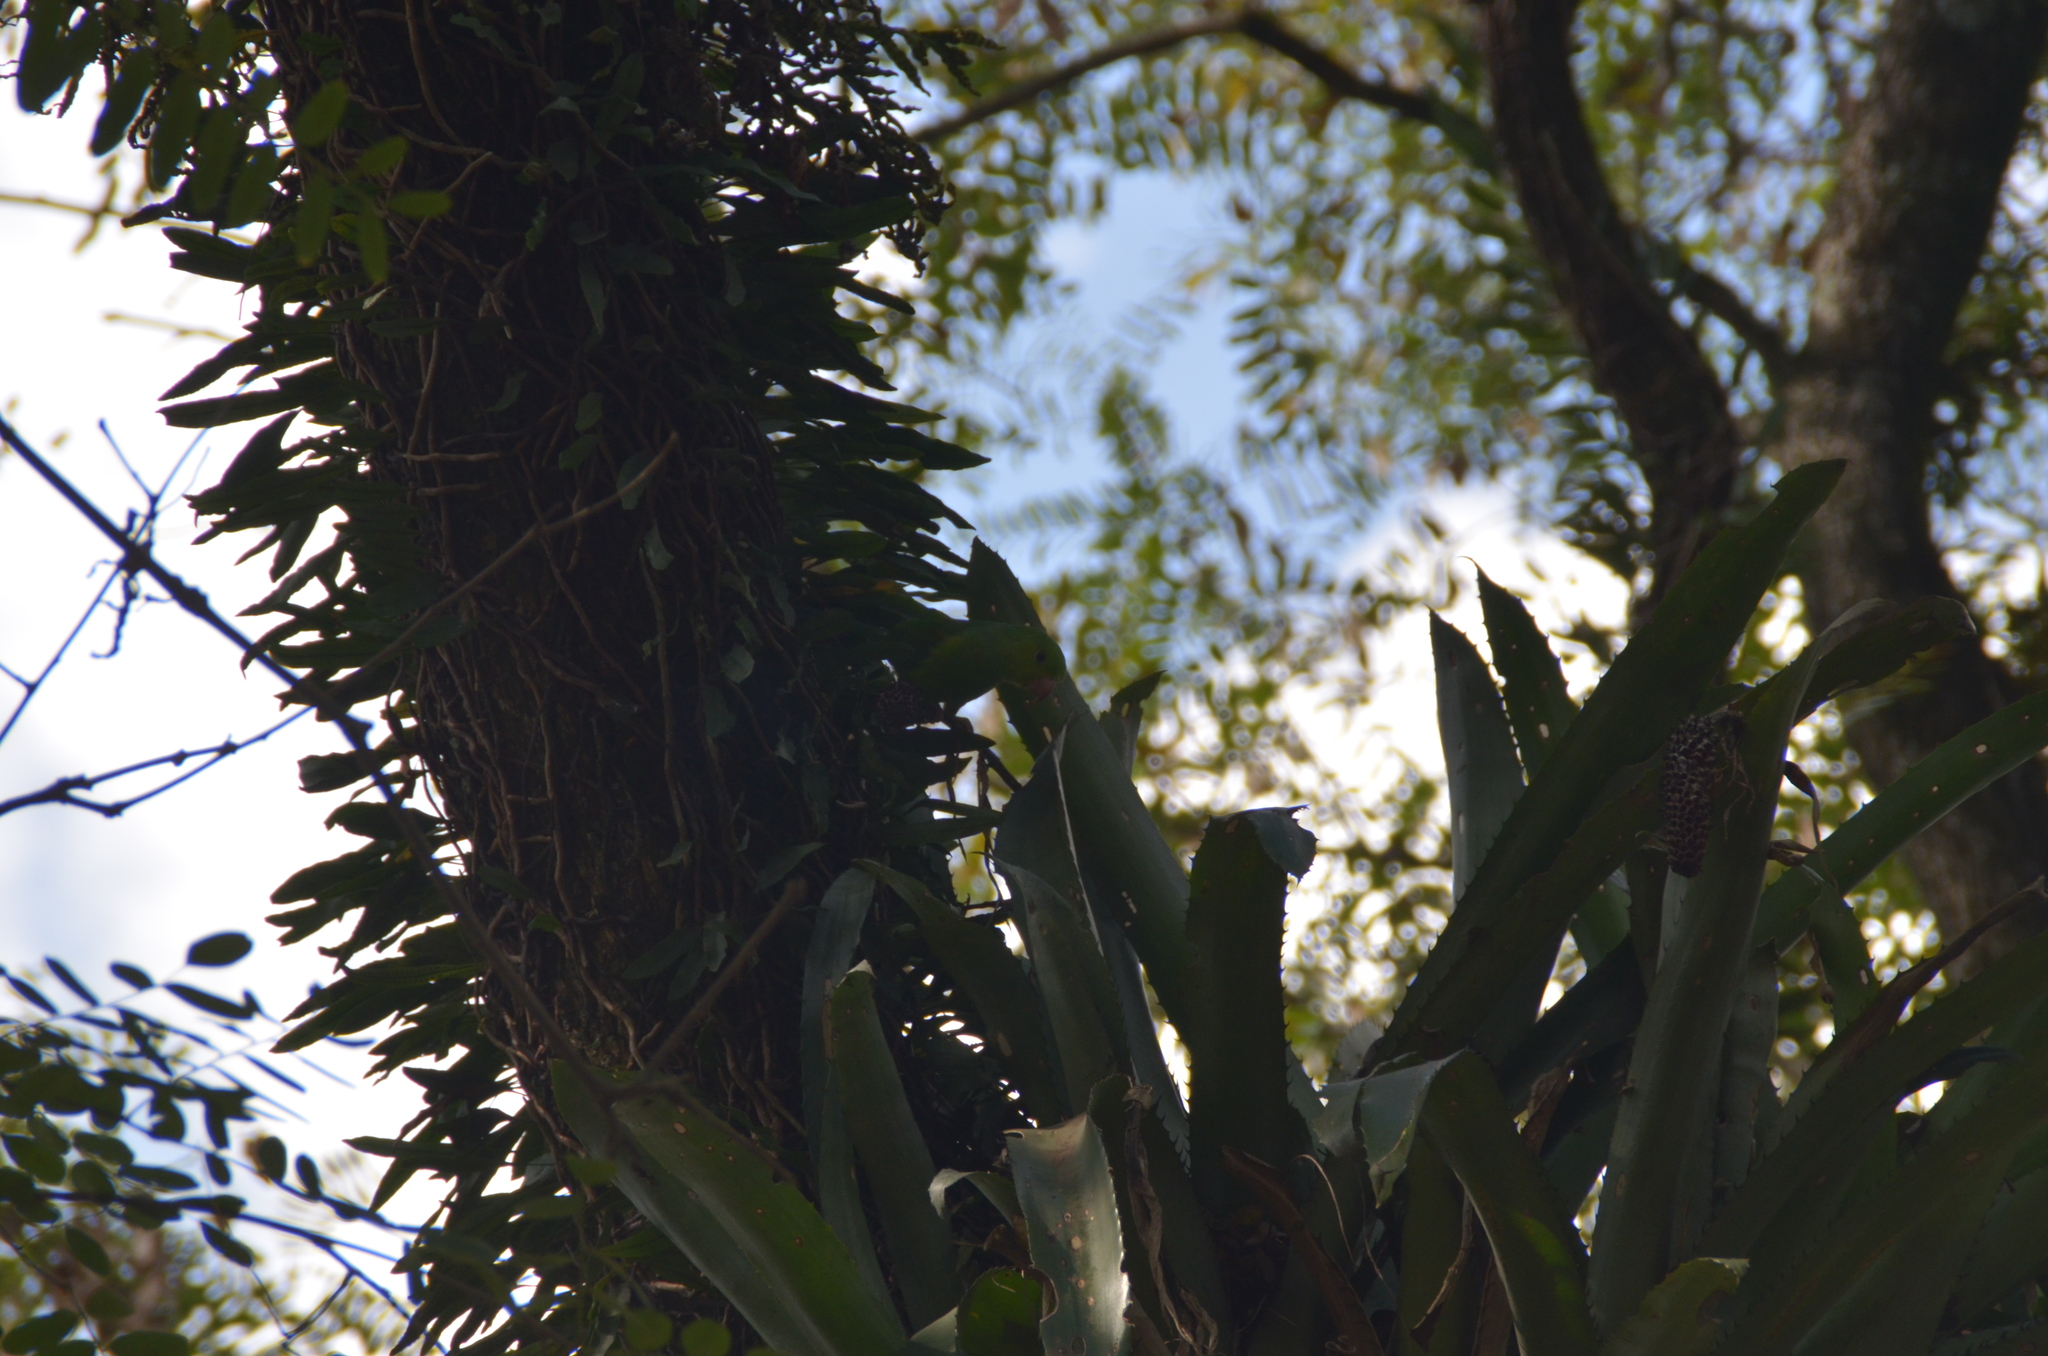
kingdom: Animalia
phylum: Chordata
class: Aves
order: Psittaciformes
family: Psittacidae
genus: Brotogeris
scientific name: Brotogeris tirica
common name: Plain parakeet
